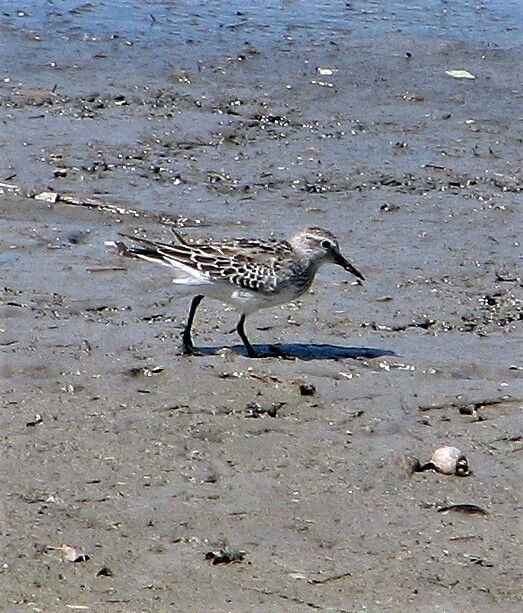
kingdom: Animalia
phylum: Chordata
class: Aves
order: Charadriiformes
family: Scolopacidae
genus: Calidris
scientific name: Calidris fuscicollis
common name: White-rumped sandpiper
